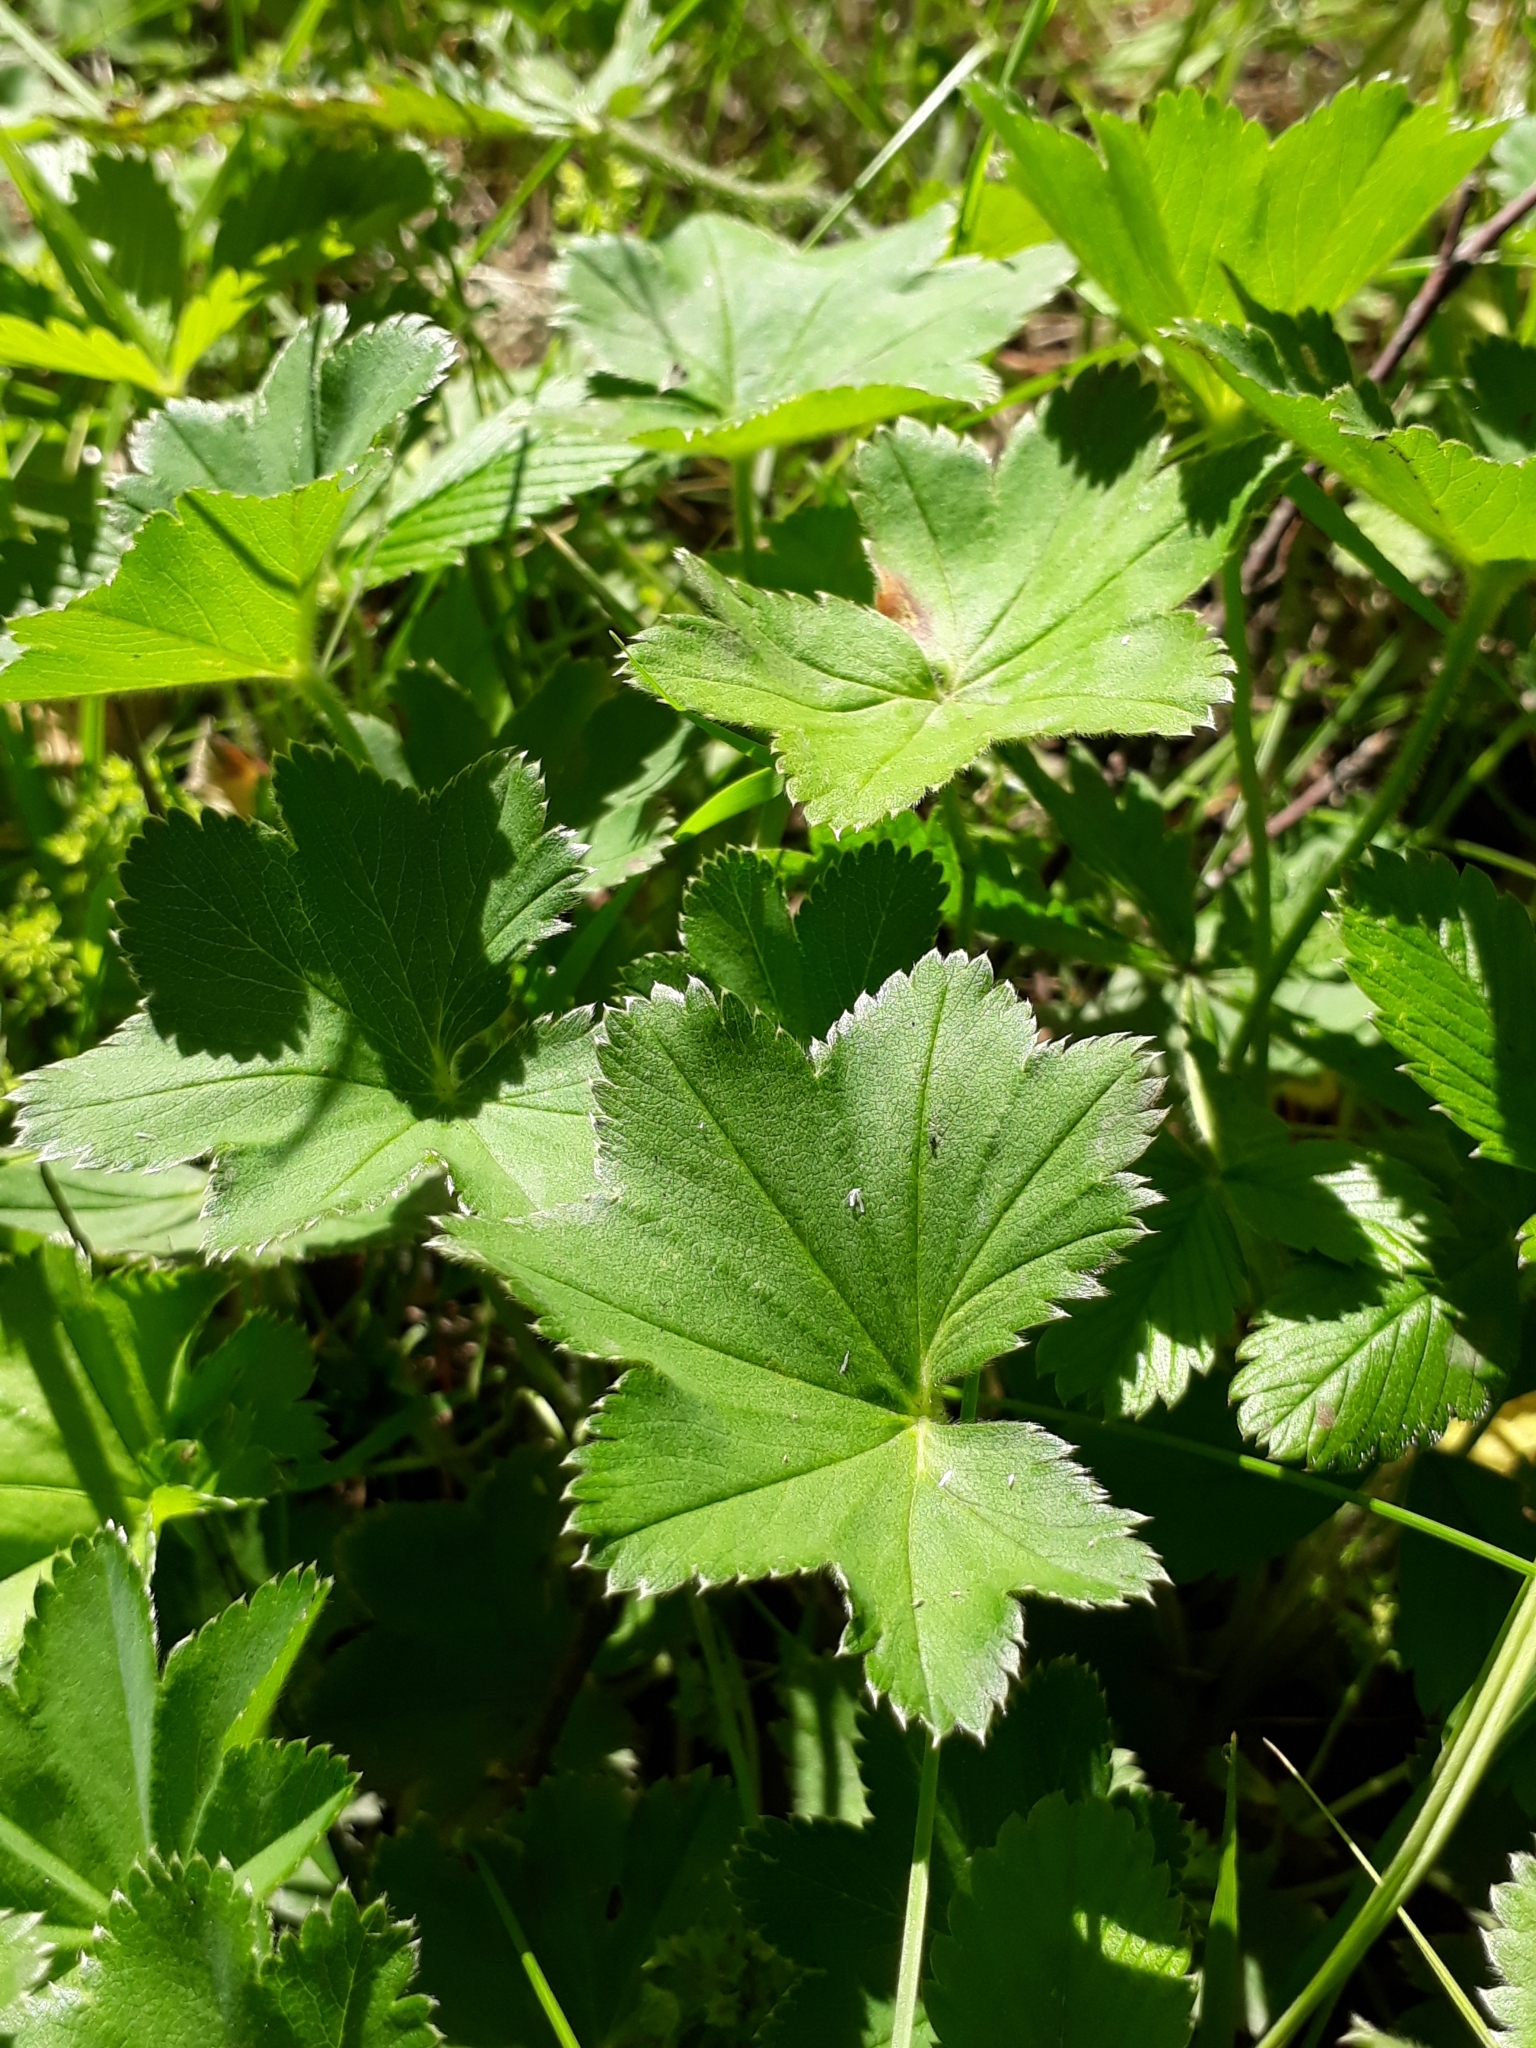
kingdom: Plantae
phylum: Tracheophyta
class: Magnoliopsida
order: Rosales
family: Rosaceae
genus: Alchemilla
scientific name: Alchemilla
